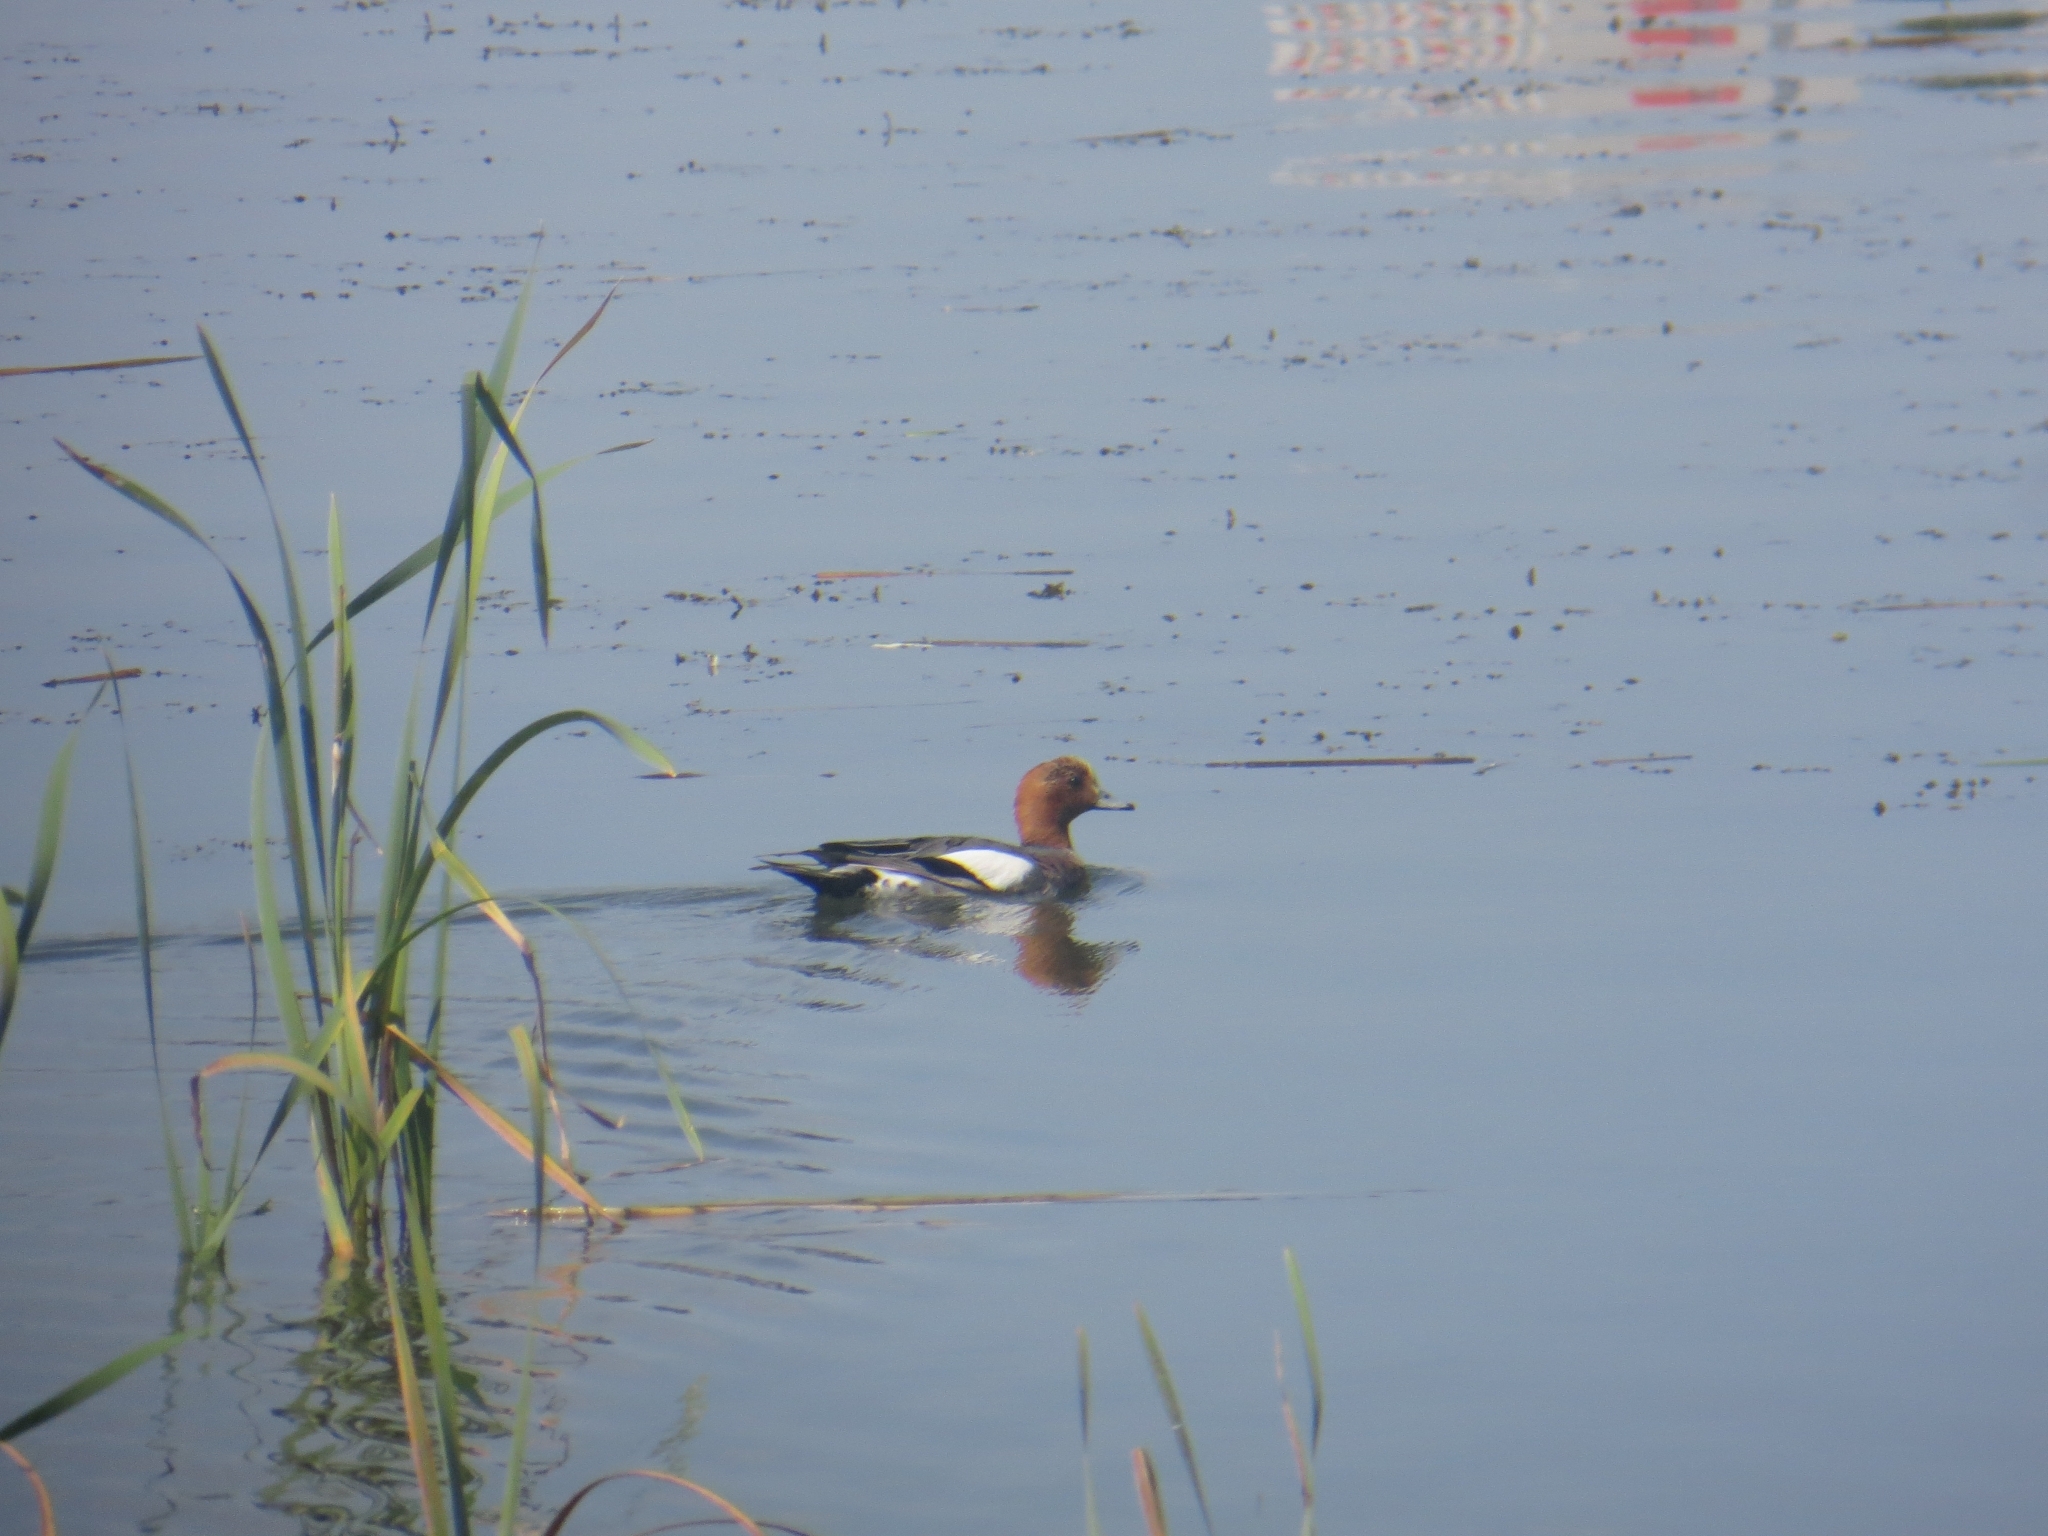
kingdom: Animalia
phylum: Chordata
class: Aves
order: Anseriformes
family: Anatidae
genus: Mareca
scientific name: Mareca penelope
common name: Eurasian wigeon
